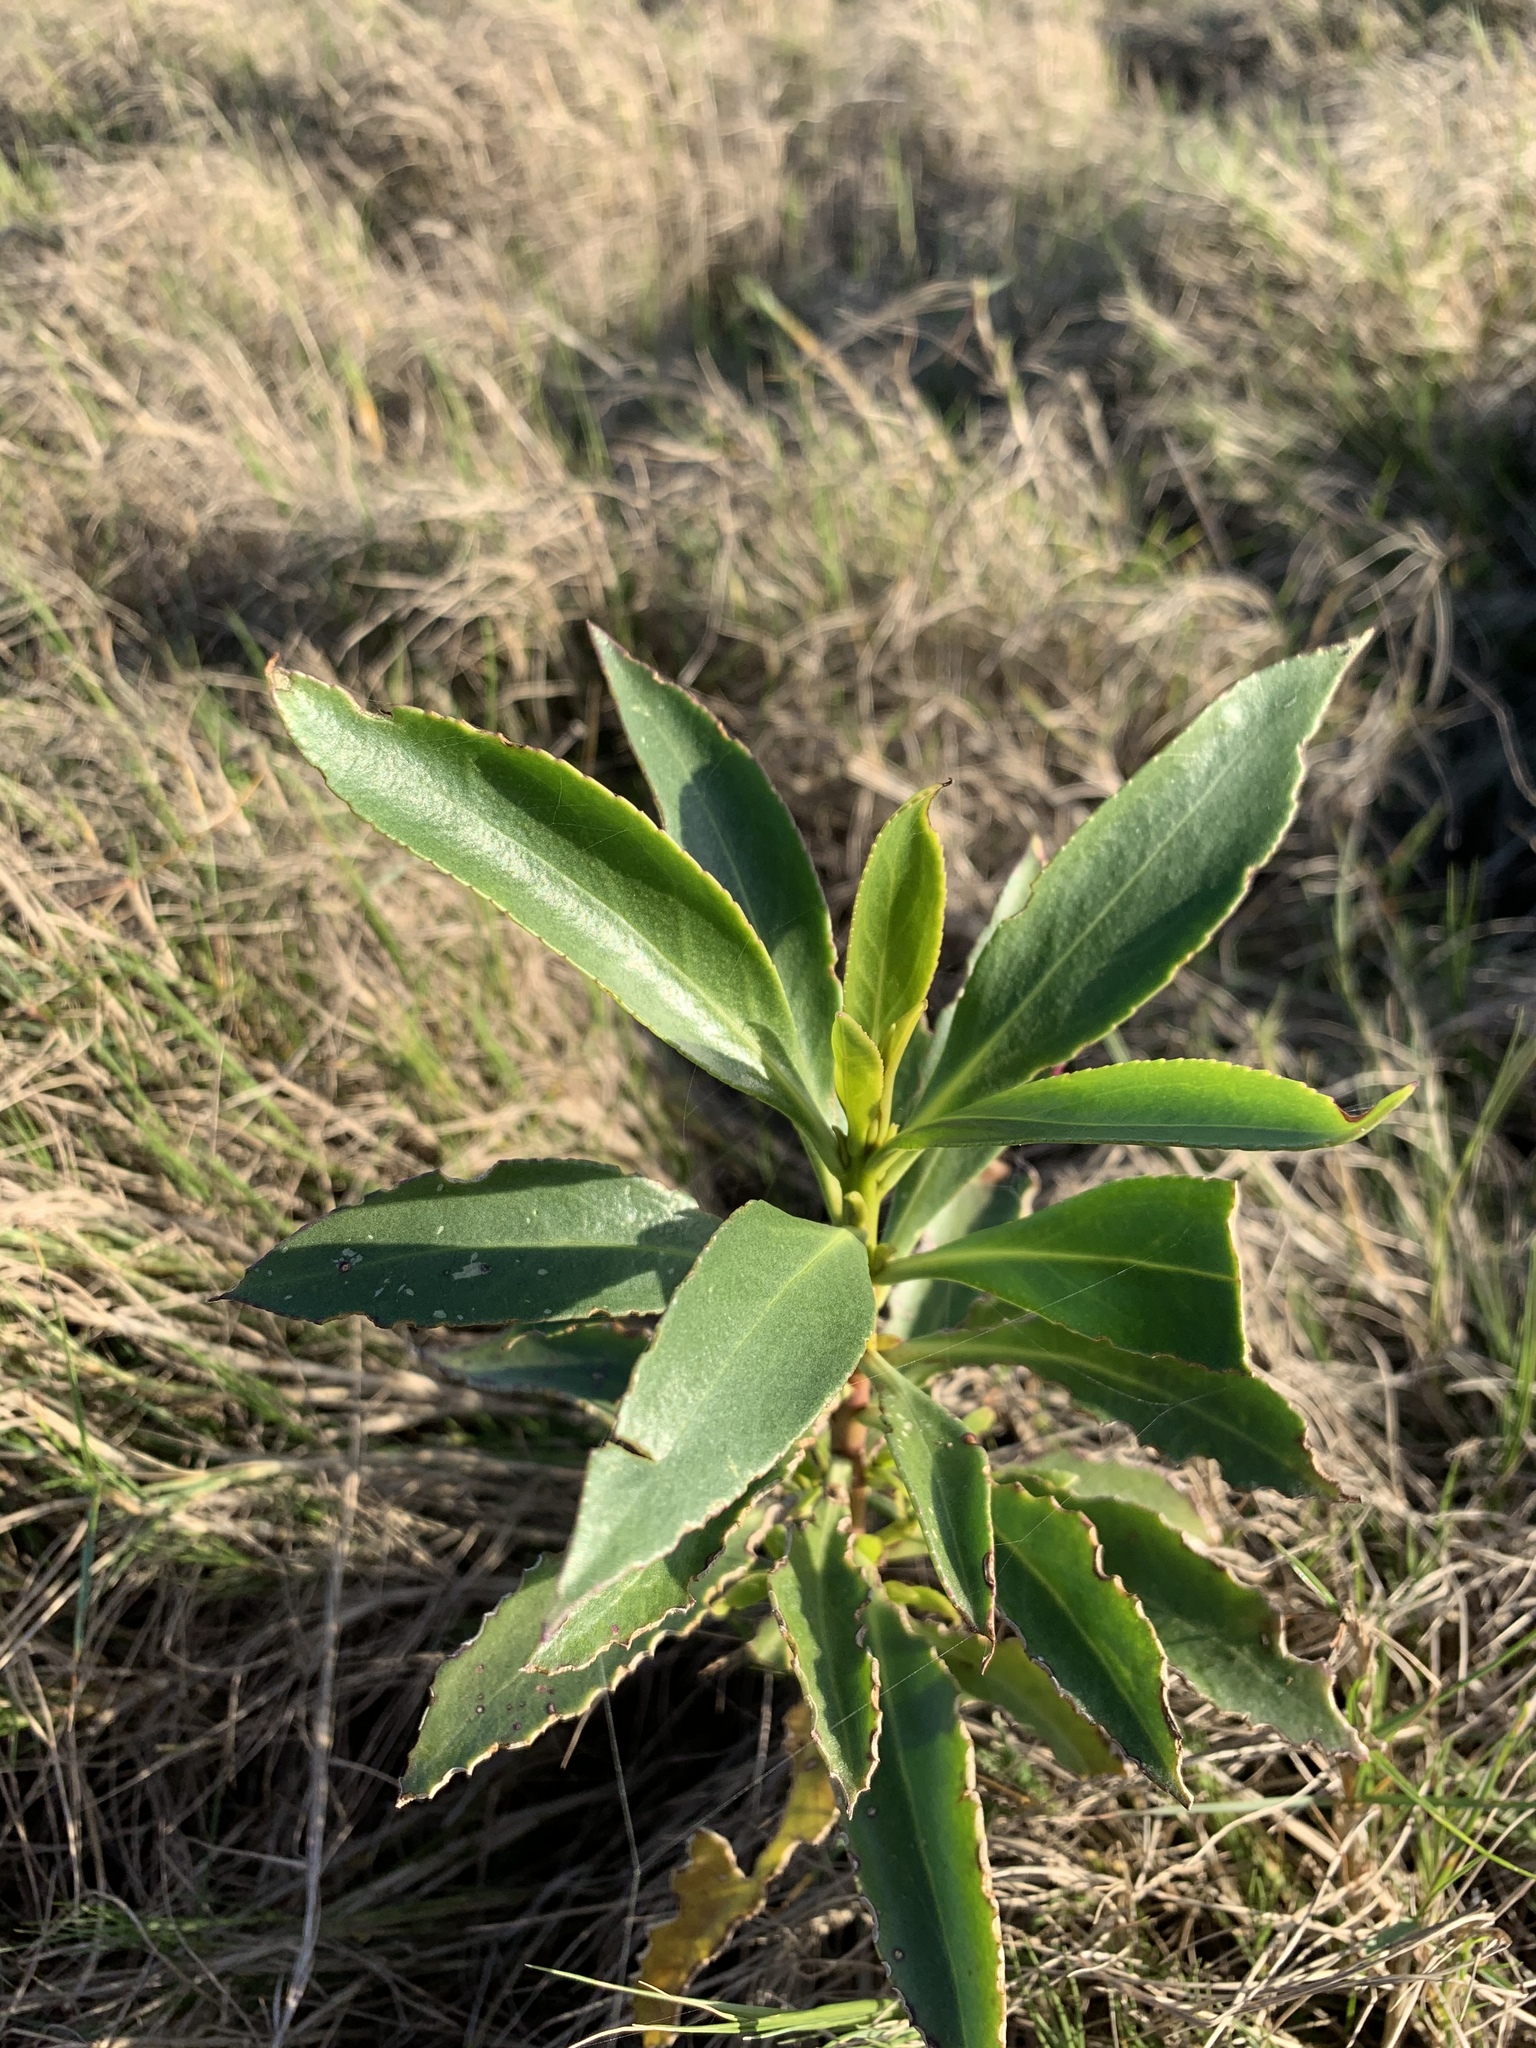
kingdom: Plantae
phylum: Tracheophyta
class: Magnoliopsida
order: Lamiales
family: Scrophulariaceae
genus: Myoporum
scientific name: Myoporum insulare
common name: Common boobialla
